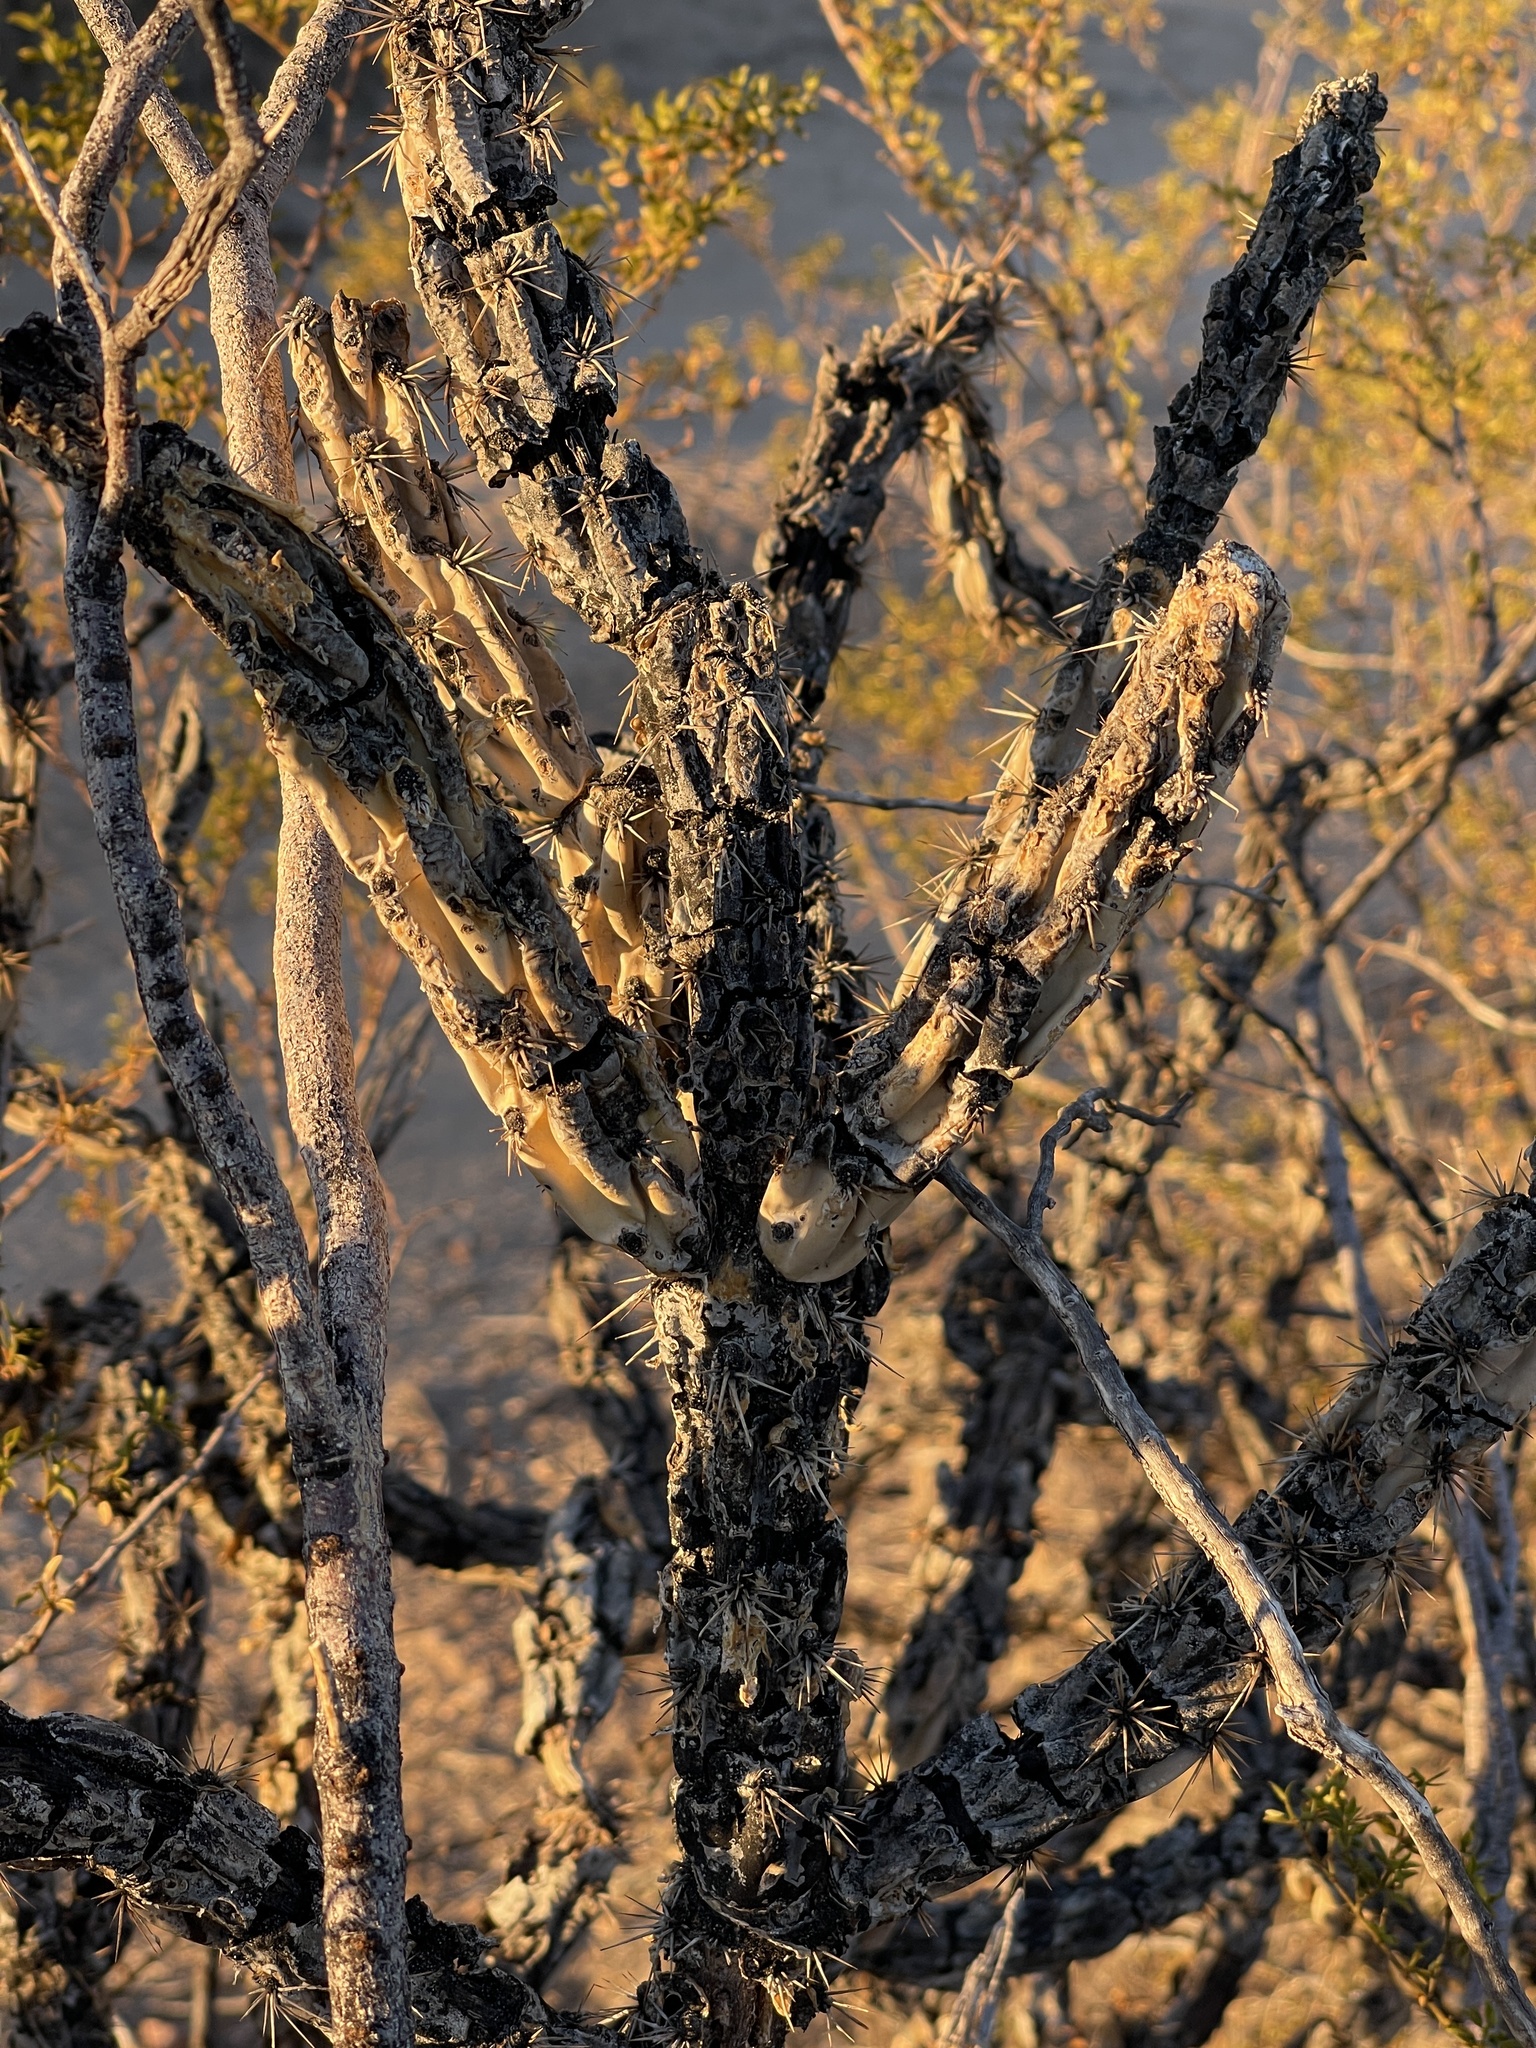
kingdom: Plantae
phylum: Tracheophyta
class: Magnoliopsida
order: Caryophyllales
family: Cactaceae
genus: Cylindropuntia
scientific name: Cylindropuntia acanthocarpa
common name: Buckhorn cholla
